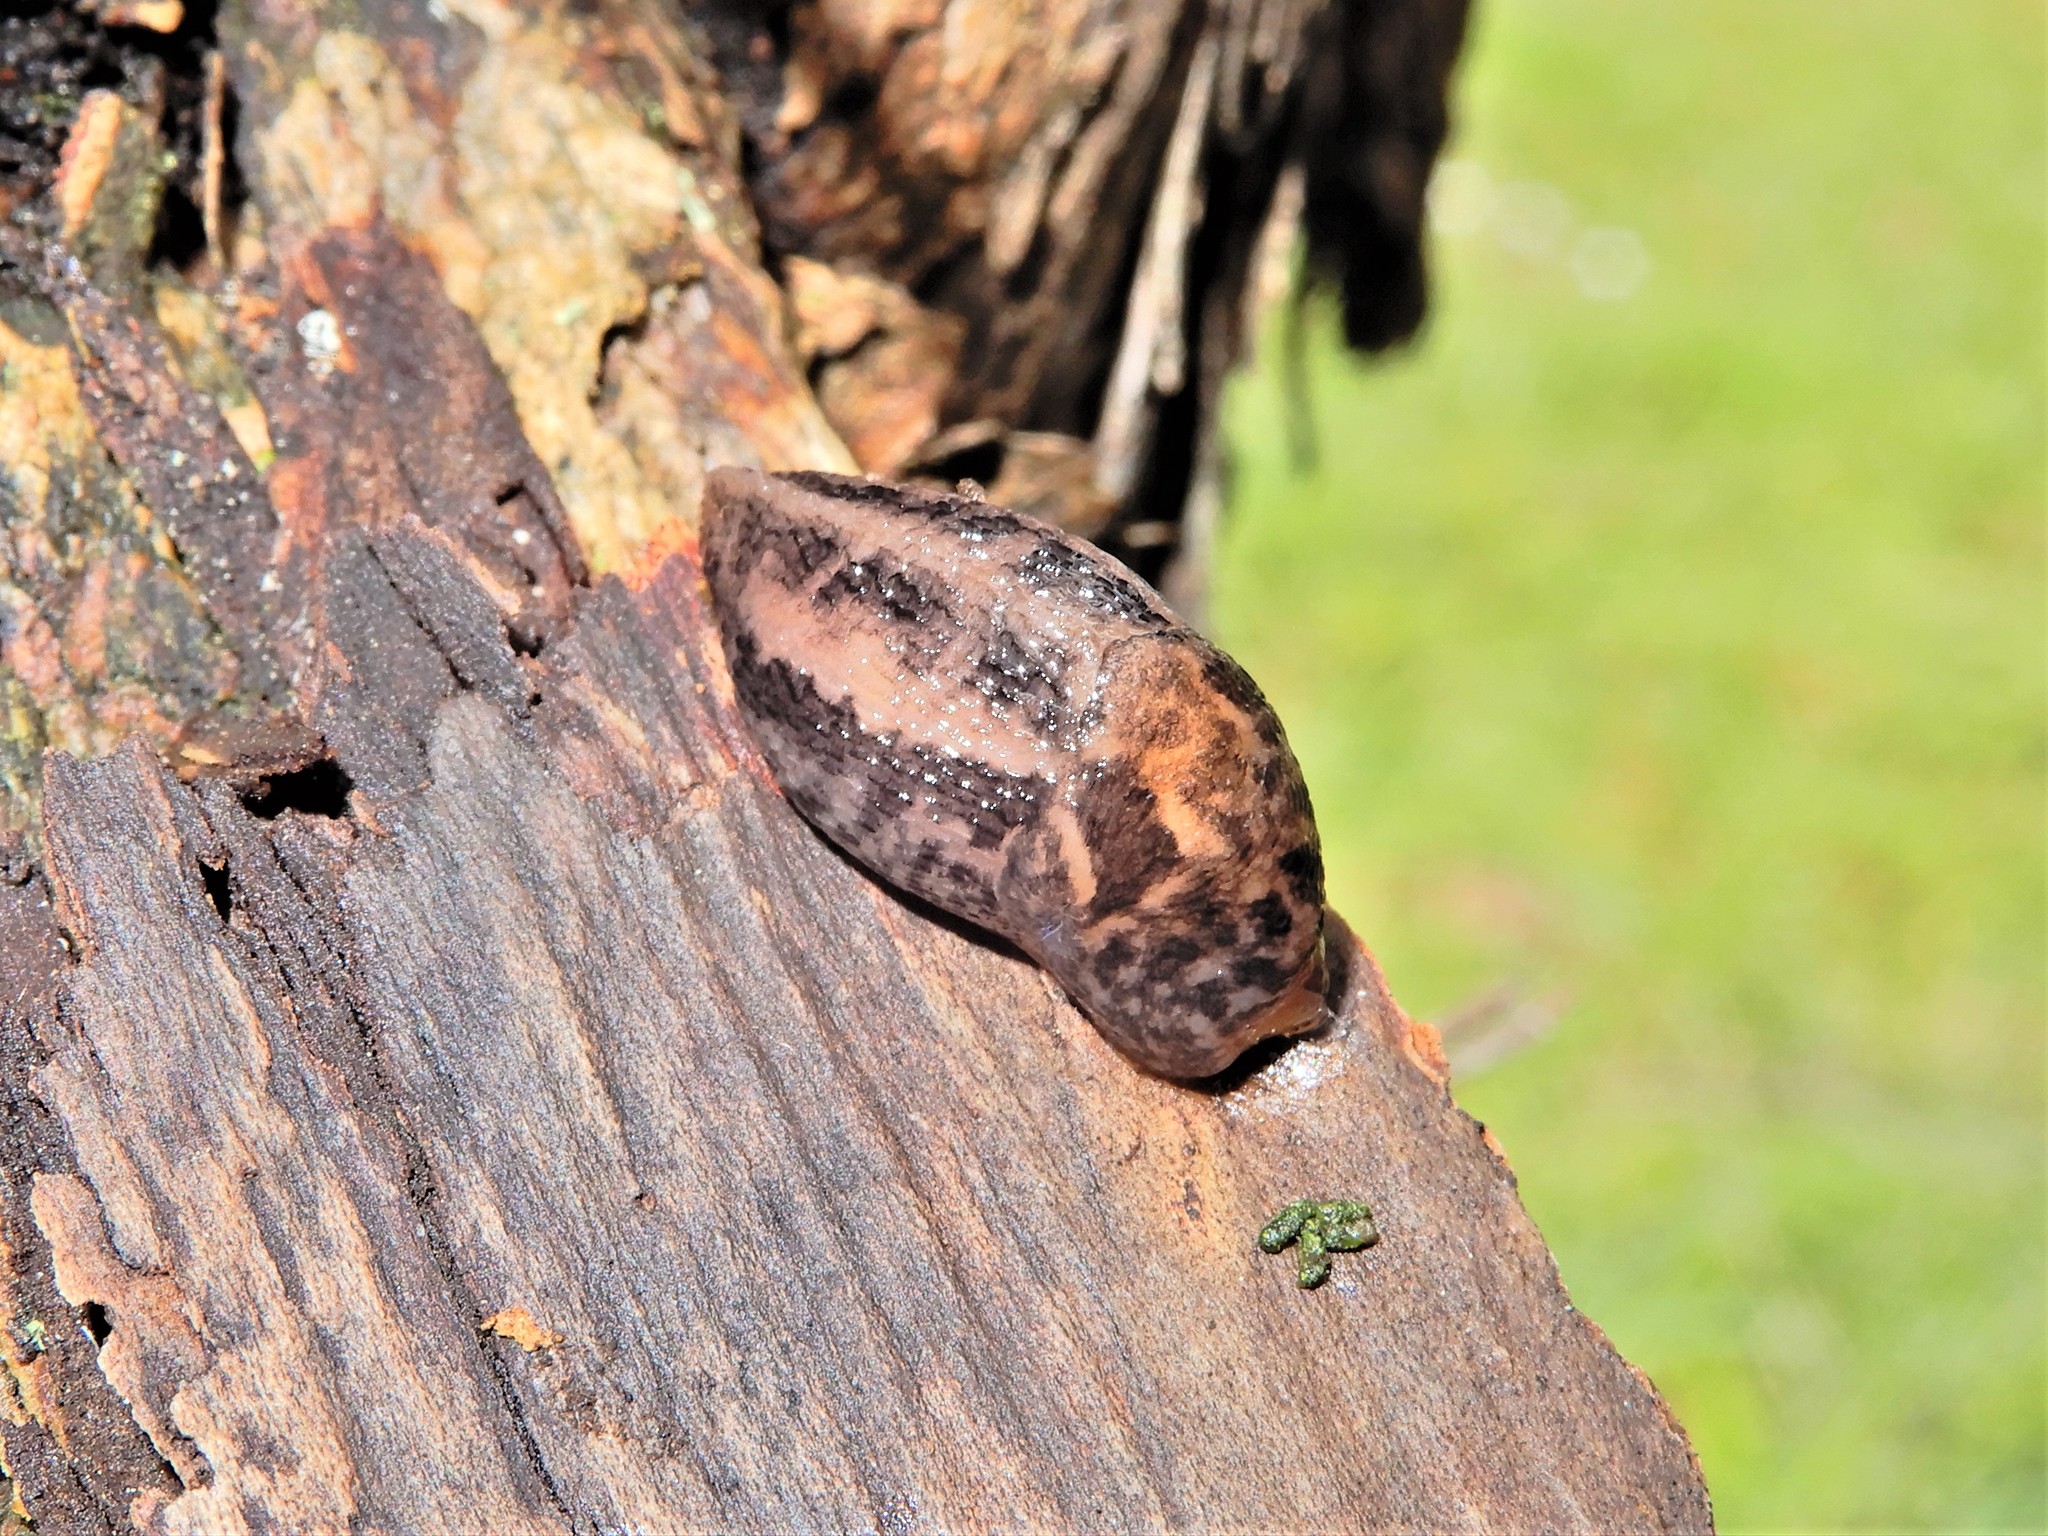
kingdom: Animalia
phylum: Mollusca
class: Gastropoda
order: Stylommatophora
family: Limacidae
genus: Limax
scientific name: Limax maximus
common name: Great grey slug
